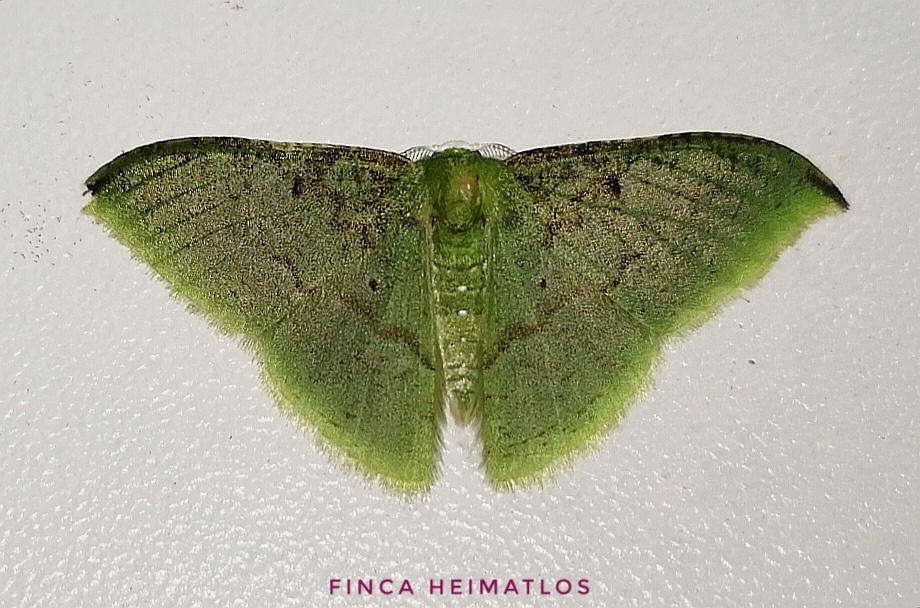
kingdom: Animalia
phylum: Arthropoda
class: Insecta
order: Lepidoptera
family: Geometridae
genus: Tachyphyle
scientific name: Tachyphyle undilineata
